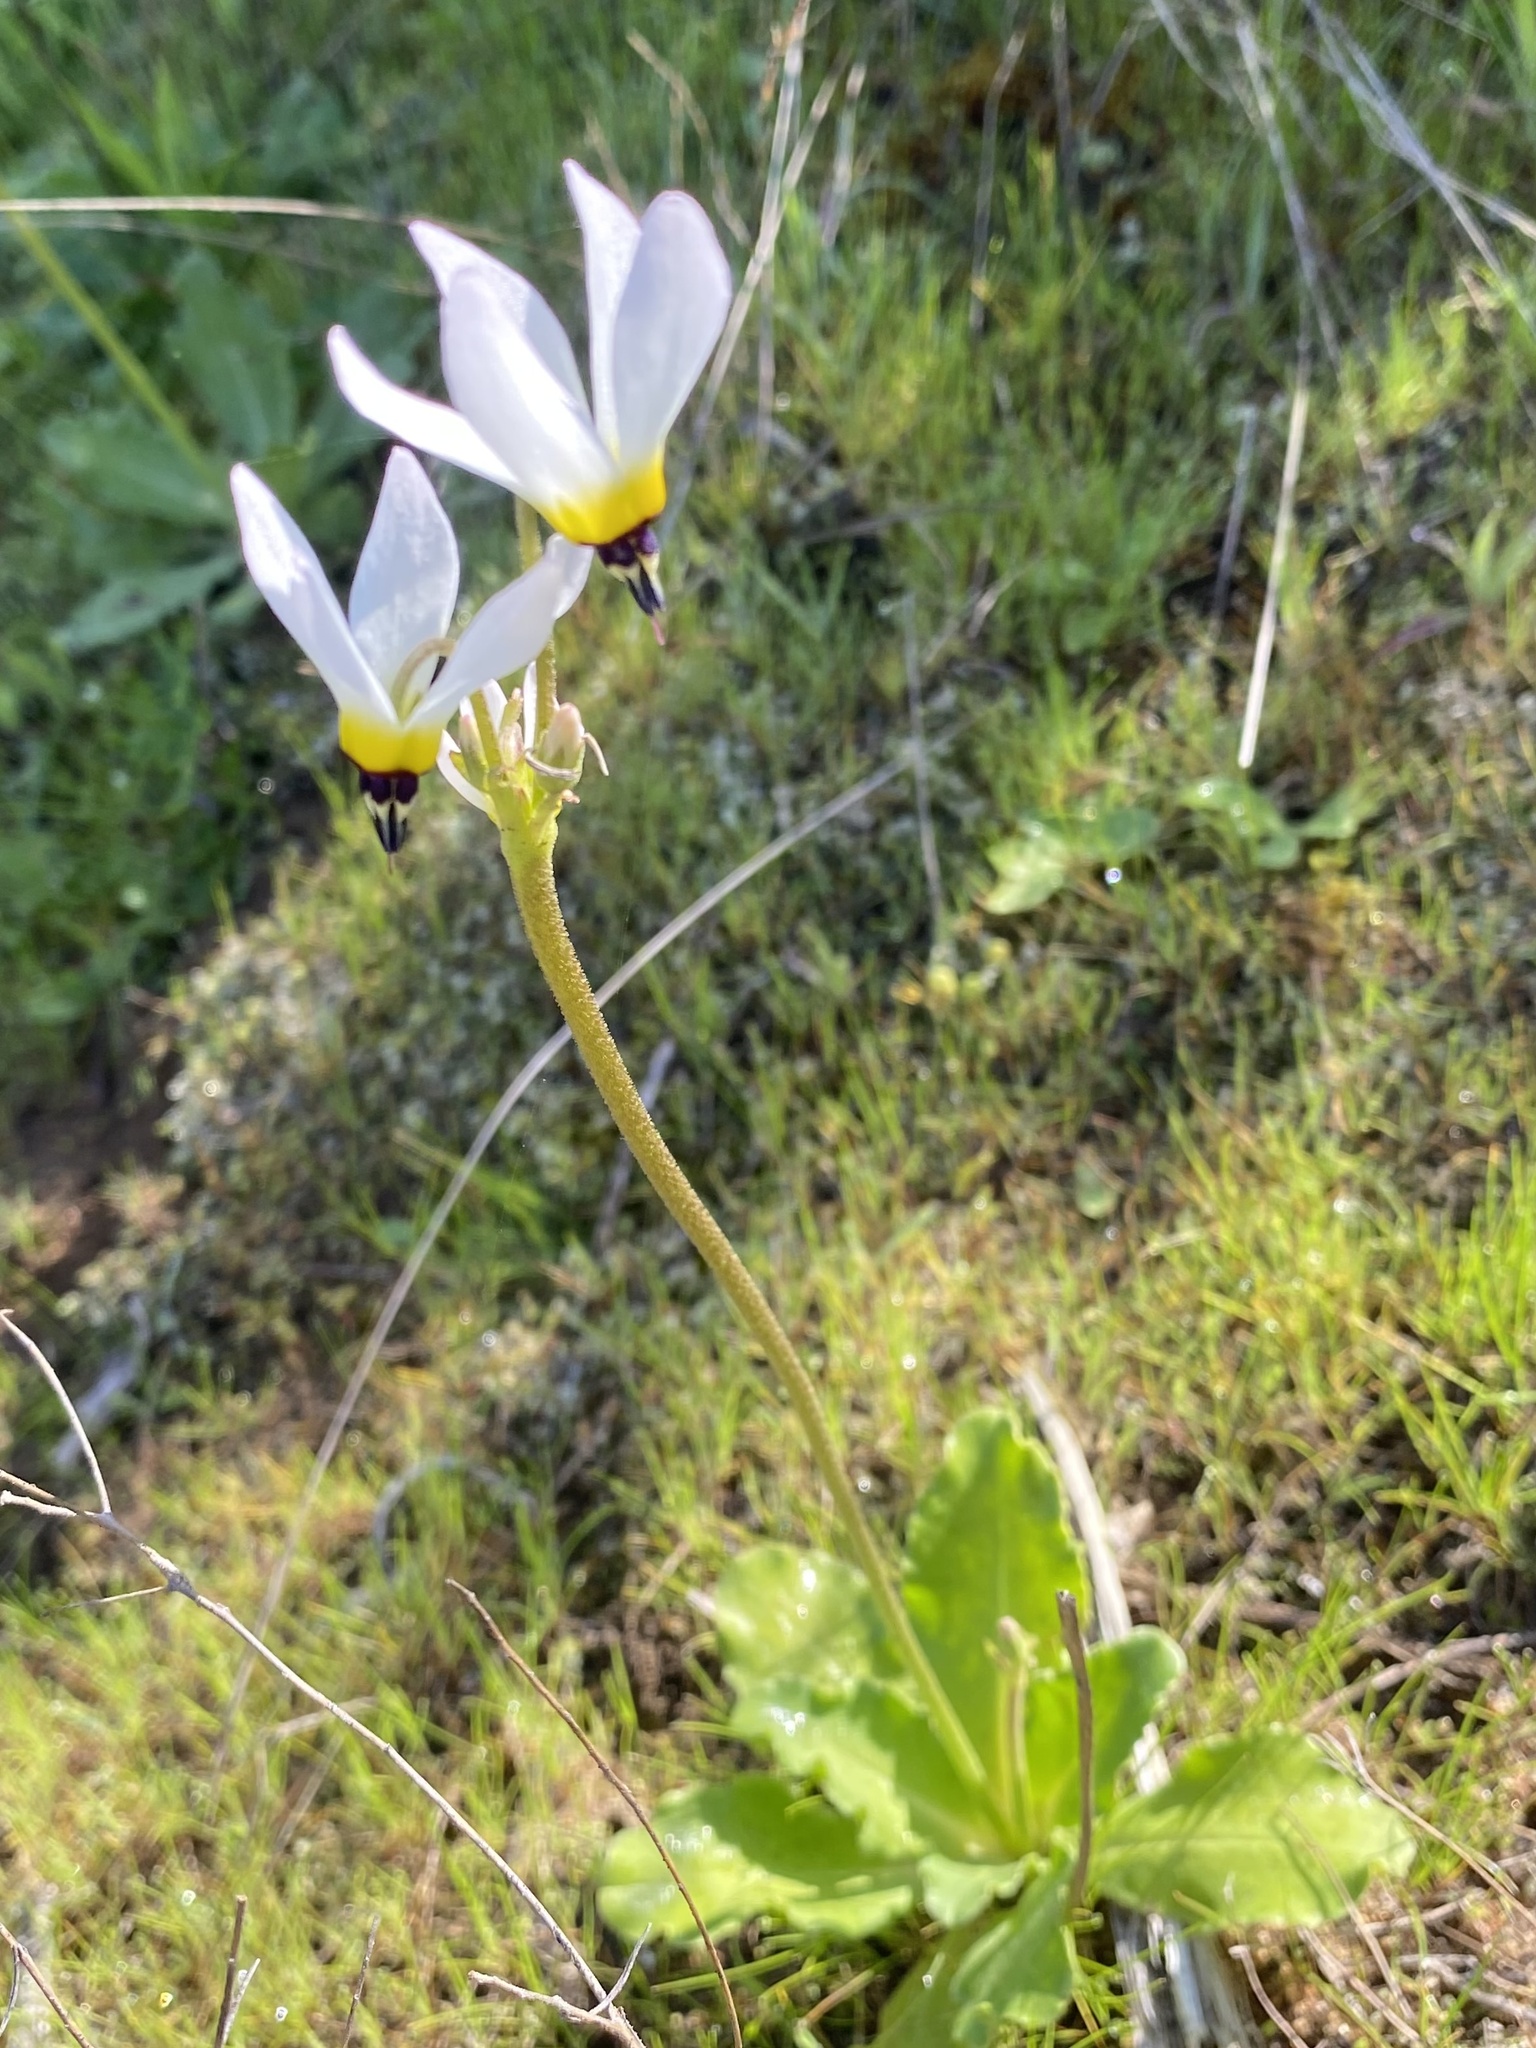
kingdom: Plantae
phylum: Tracheophyta
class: Magnoliopsida
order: Ericales
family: Primulaceae
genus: Dodecatheon
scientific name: Dodecatheon clevelandii
